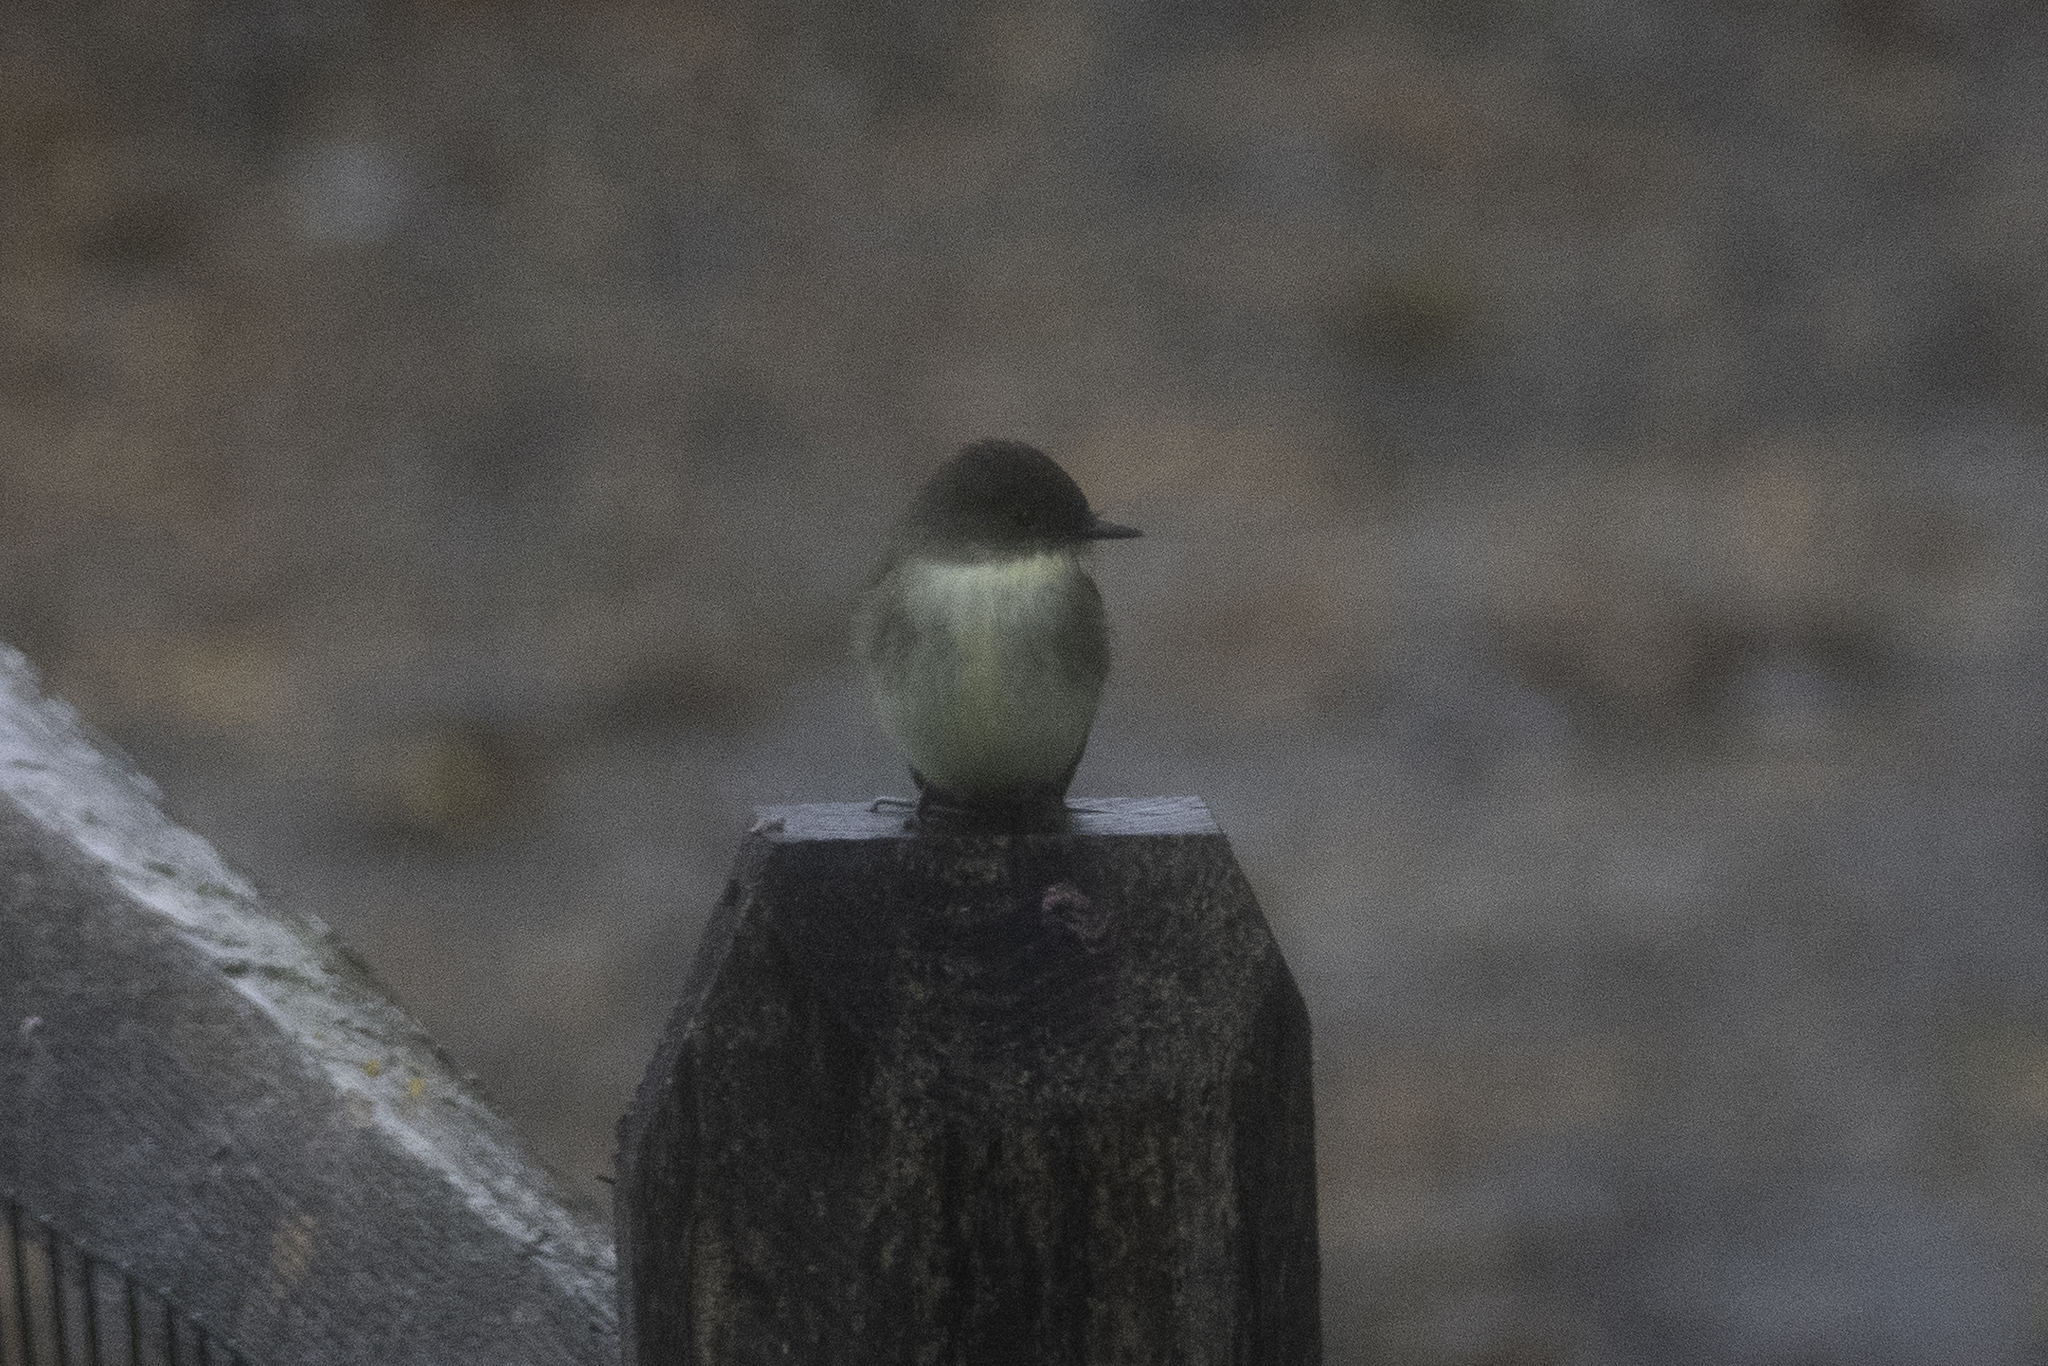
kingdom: Animalia
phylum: Chordata
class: Aves
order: Passeriformes
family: Tyrannidae
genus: Sayornis
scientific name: Sayornis phoebe
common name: Eastern phoebe
